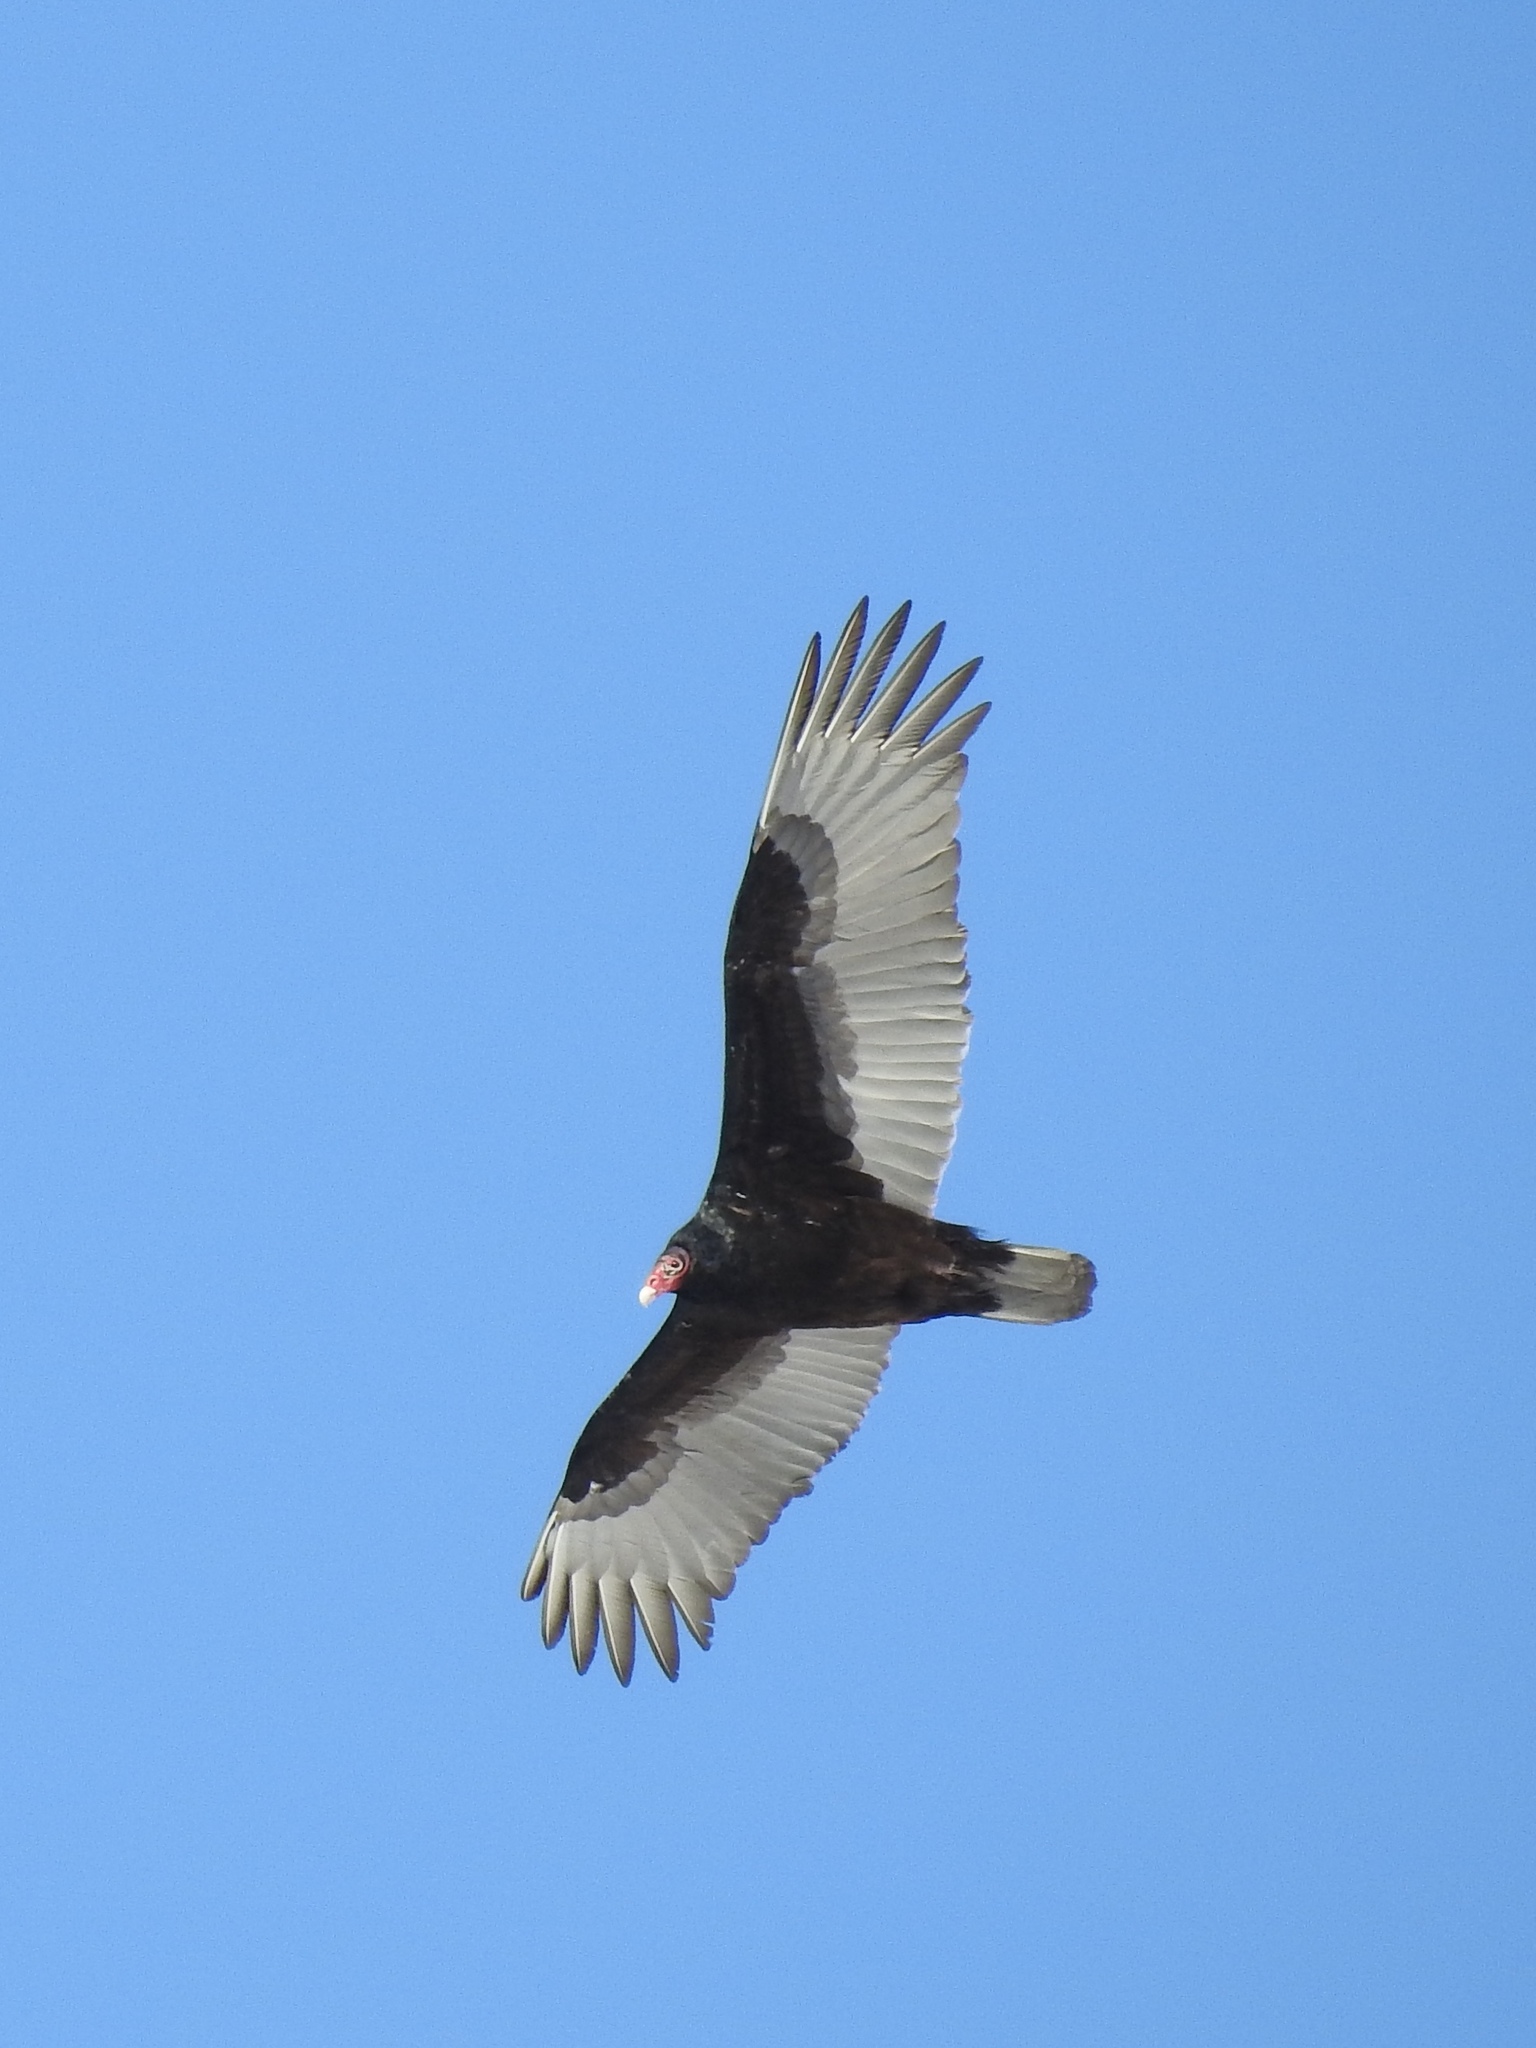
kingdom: Animalia
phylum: Chordata
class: Aves
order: Accipitriformes
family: Cathartidae
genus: Cathartes
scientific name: Cathartes aura
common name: Turkey vulture
